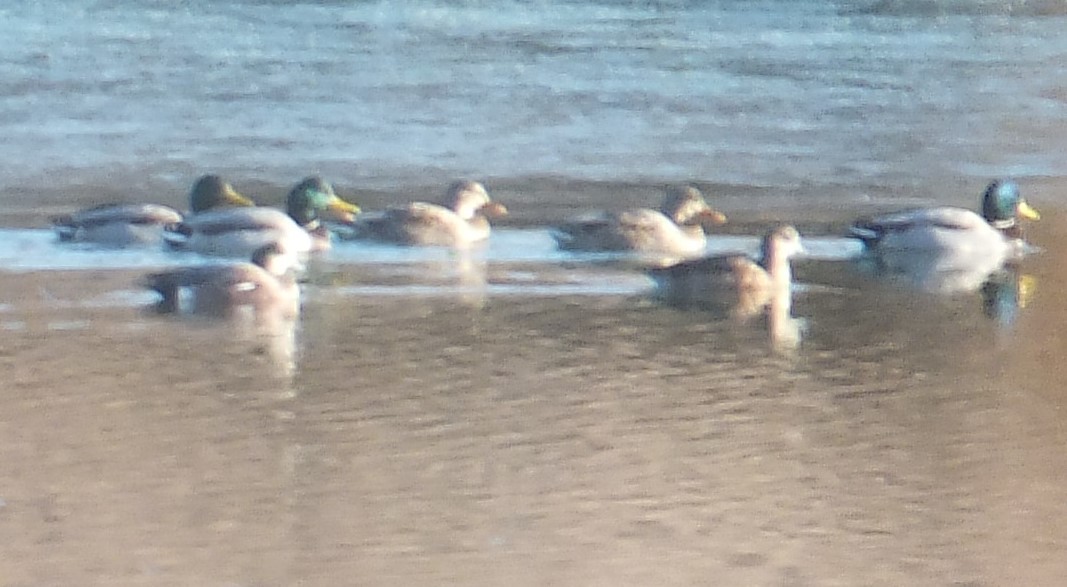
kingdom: Animalia
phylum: Chordata
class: Aves
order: Anseriformes
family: Anatidae
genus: Mareca
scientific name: Mareca americana
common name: American wigeon
